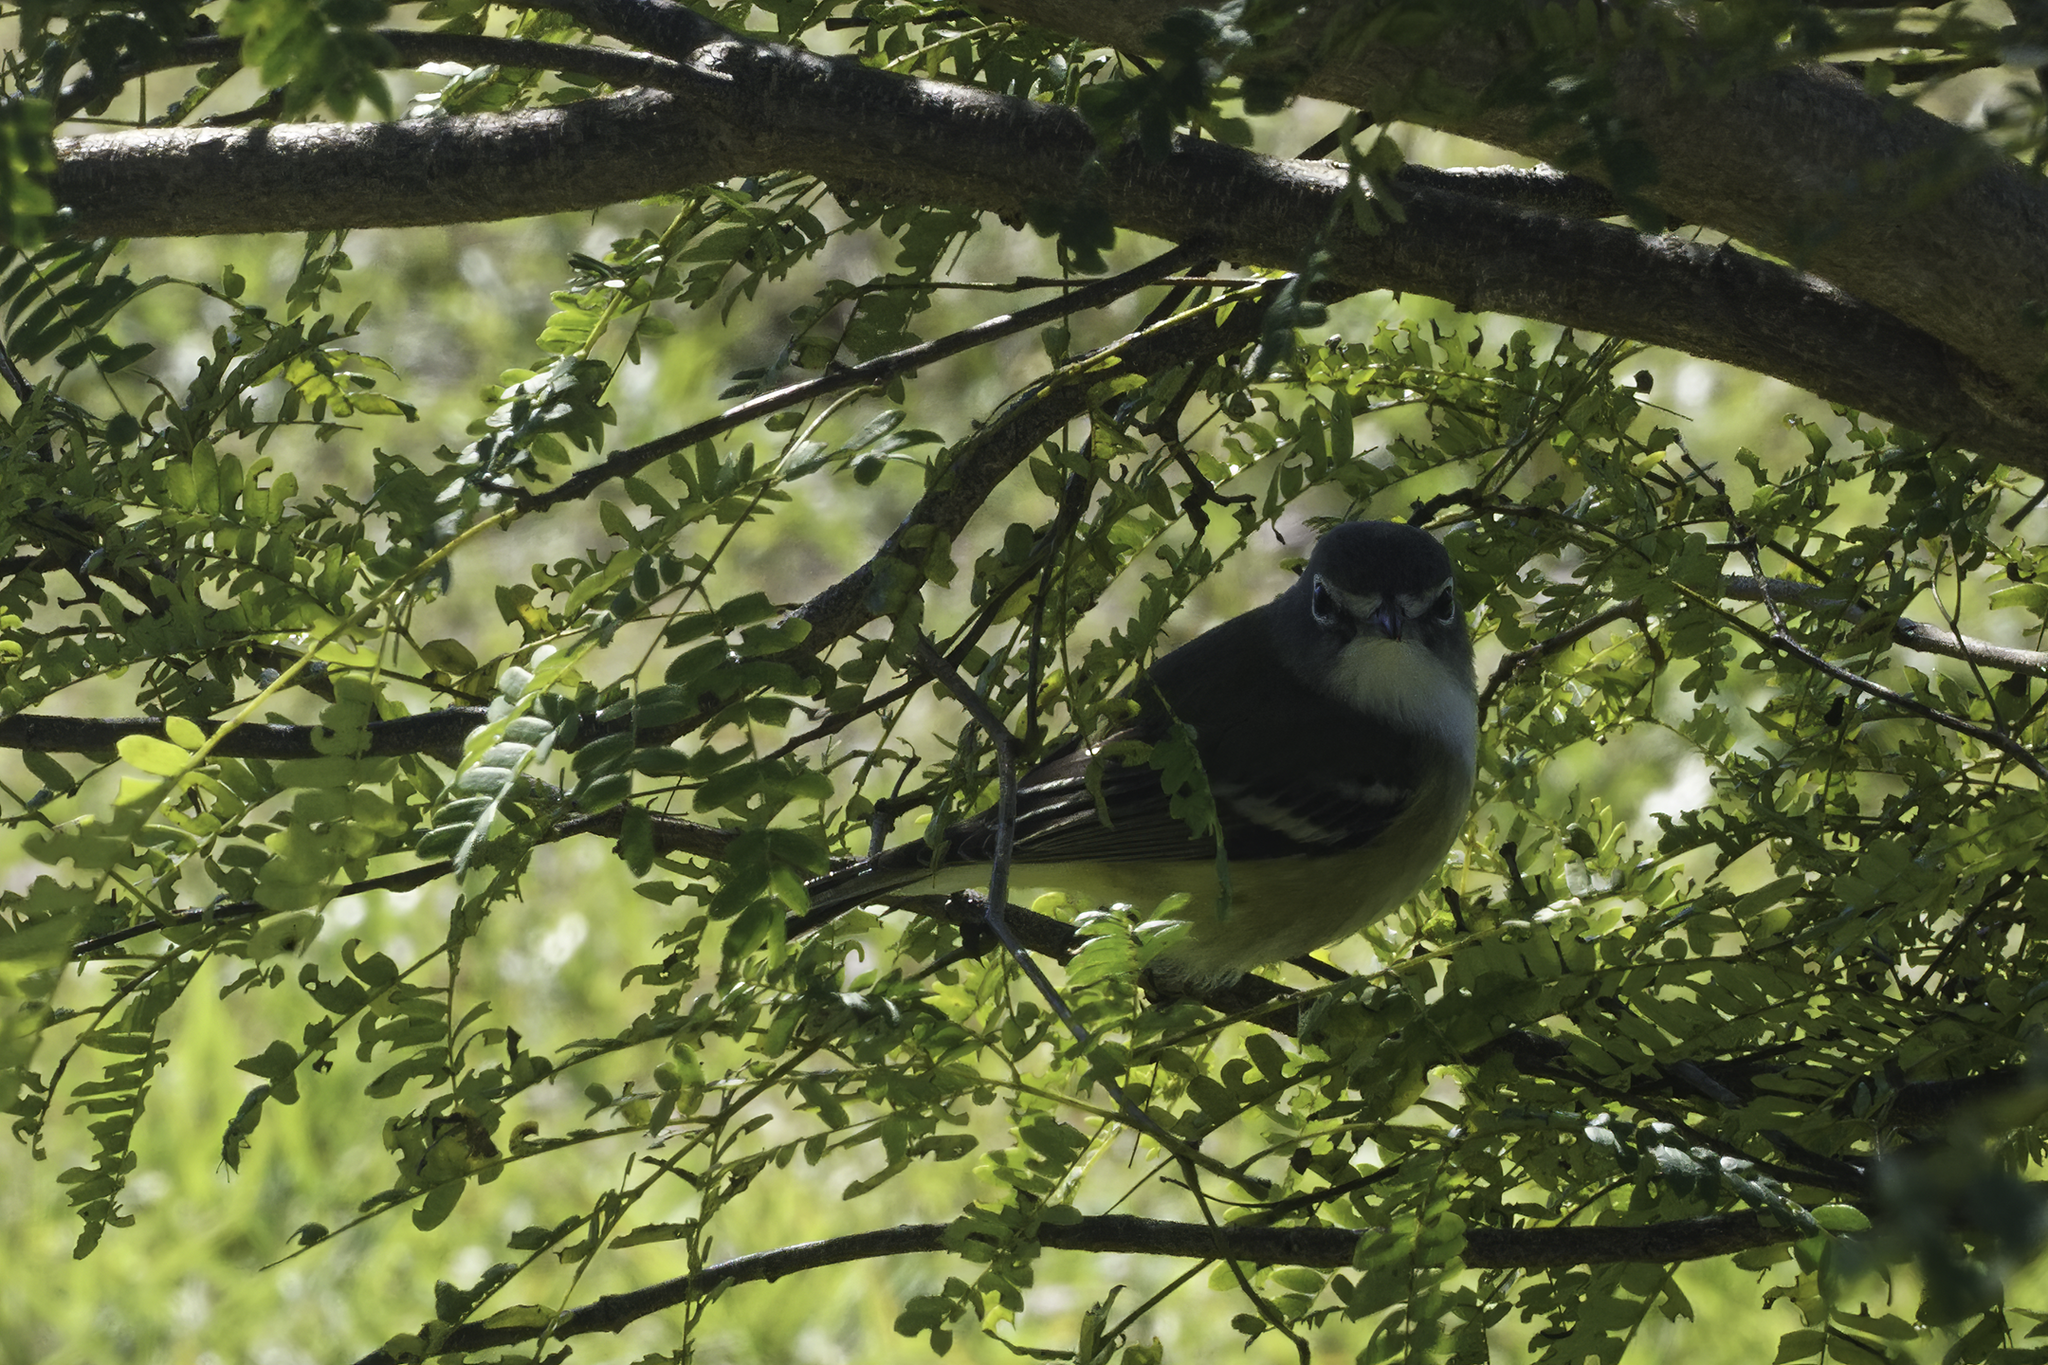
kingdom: Animalia
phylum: Chordata
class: Aves
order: Passeriformes
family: Vireonidae
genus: Vireo
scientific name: Vireo solitarius
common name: Blue-headed vireo
